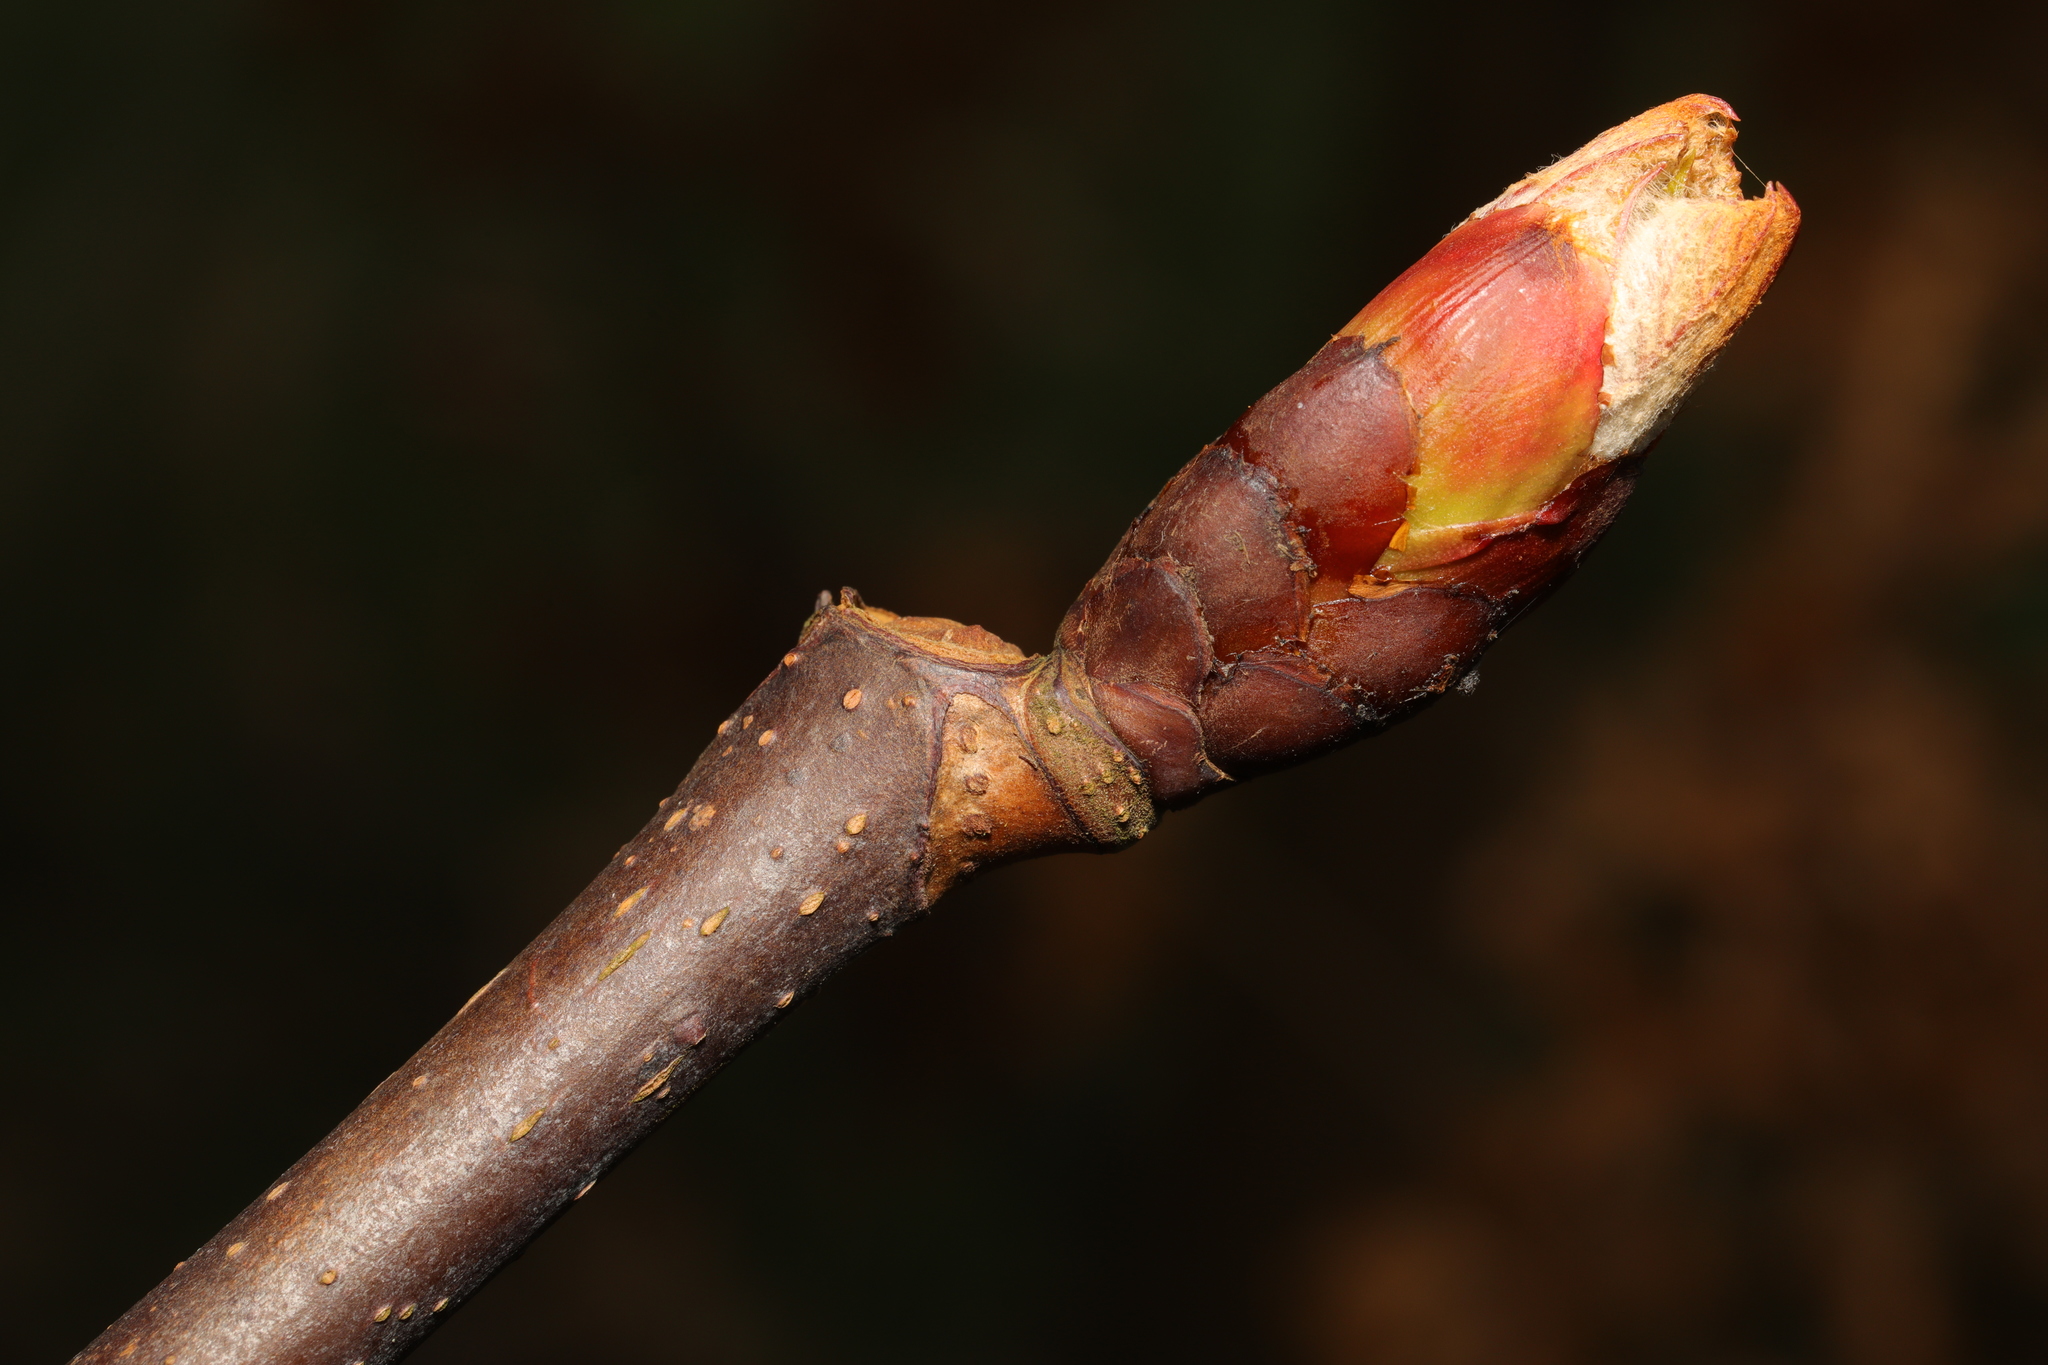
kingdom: Plantae
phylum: Tracheophyta
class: Magnoliopsida
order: Sapindales
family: Sapindaceae
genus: Aesculus
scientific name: Aesculus hippocastanum
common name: Horse-chestnut
